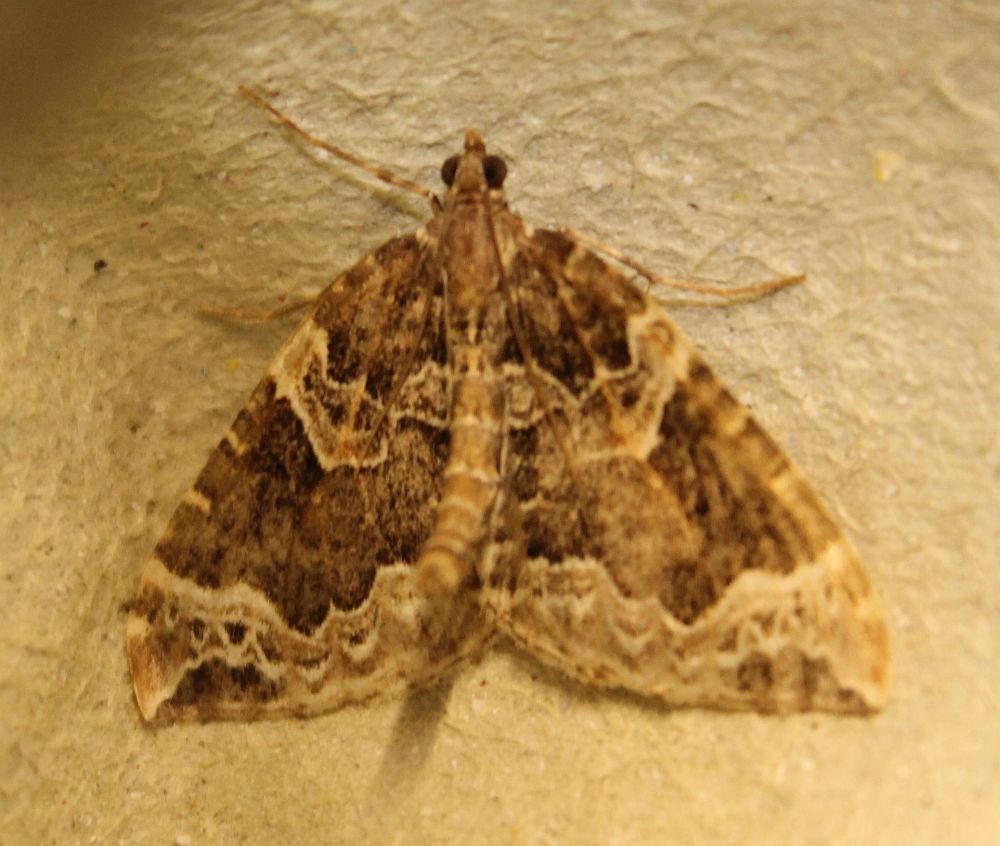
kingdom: Animalia
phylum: Arthropoda
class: Insecta
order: Lepidoptera
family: Geometridae
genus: Ecliptopera
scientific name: Ecliptopera silaceata
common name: Small phoenix
